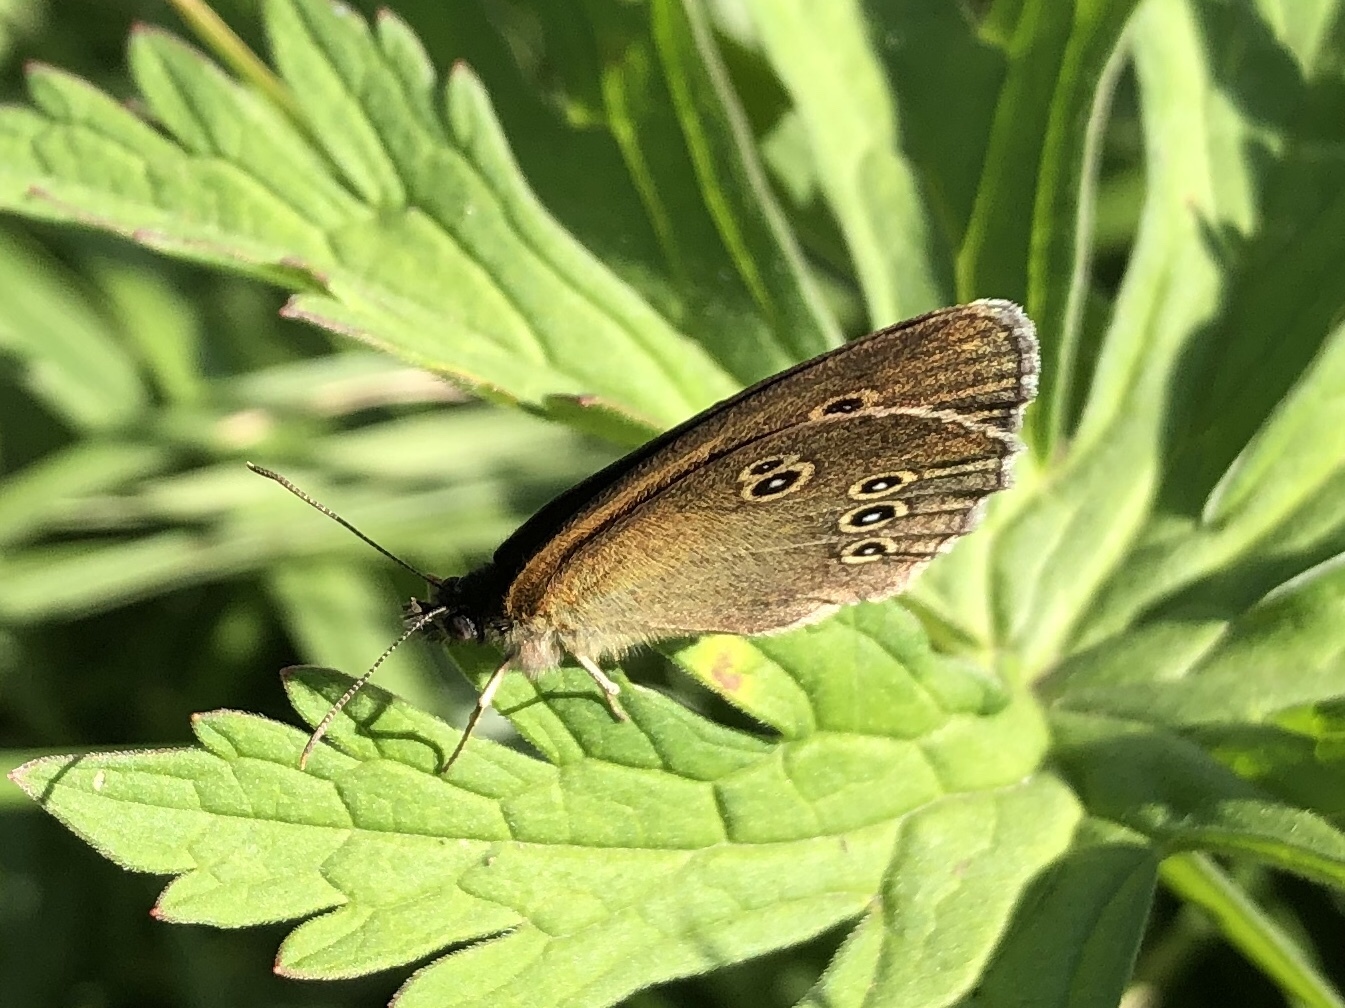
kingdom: Animalia
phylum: Arthropoda
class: Insecta
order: Lepidoptera
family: Nymphalidae
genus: Aphantopus
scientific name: Aphantopus hyperantus
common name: Ringlet
